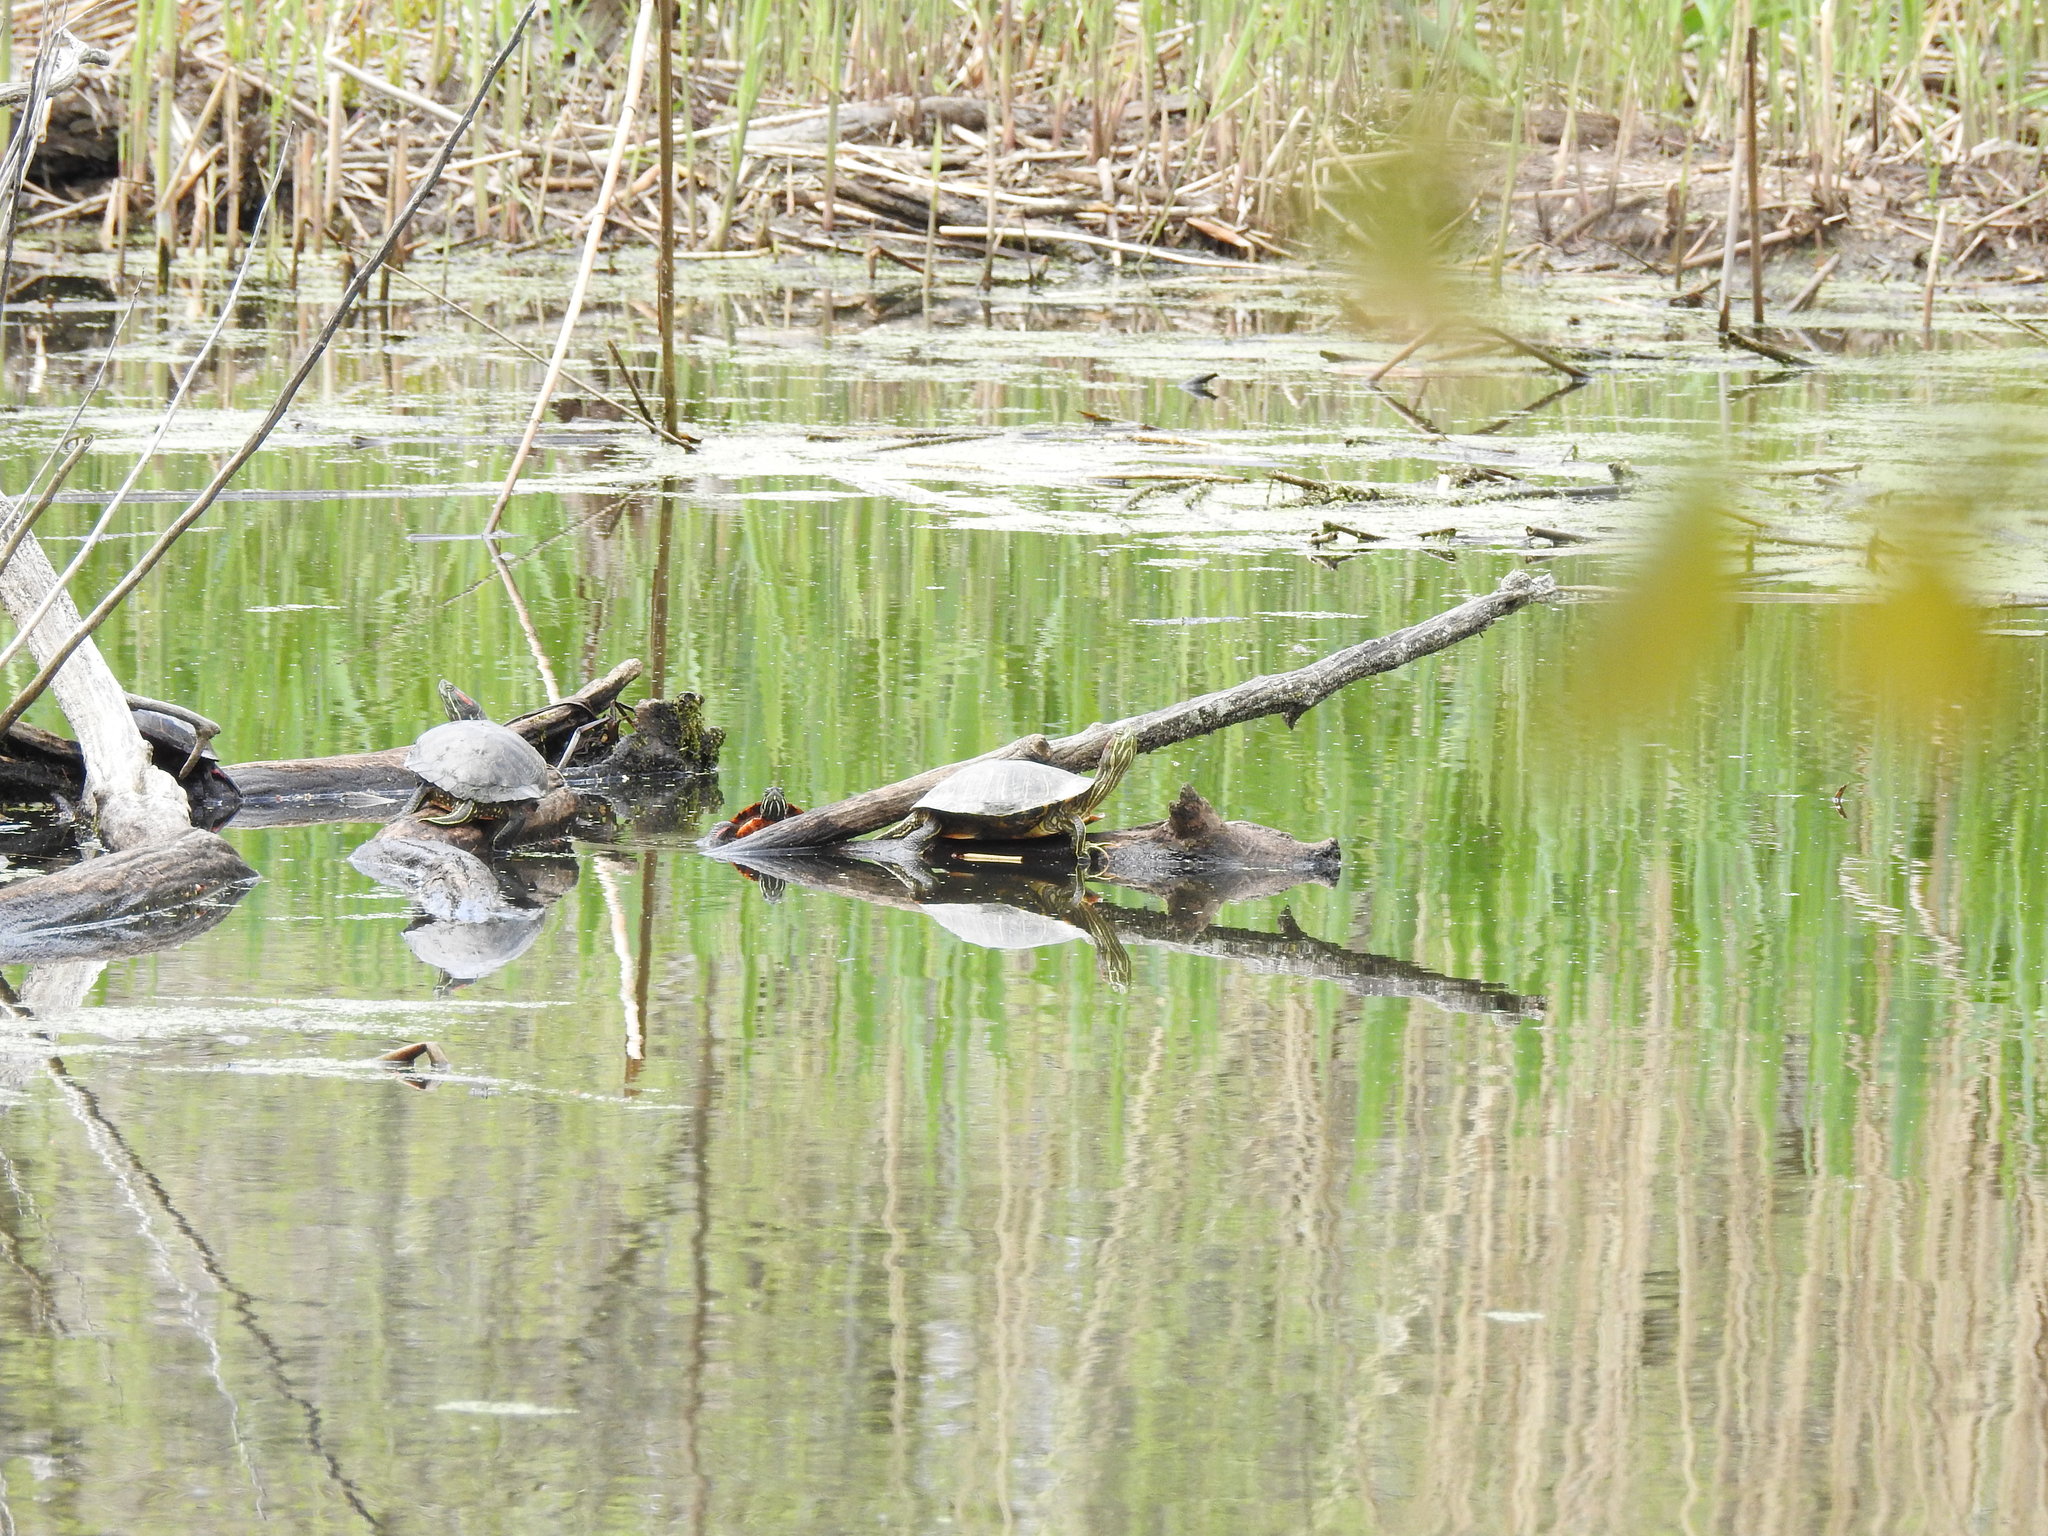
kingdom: Animalia
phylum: Chordata
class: Testudines
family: Emydidae
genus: Trachemys
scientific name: Trachemys scripta
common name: Slider
